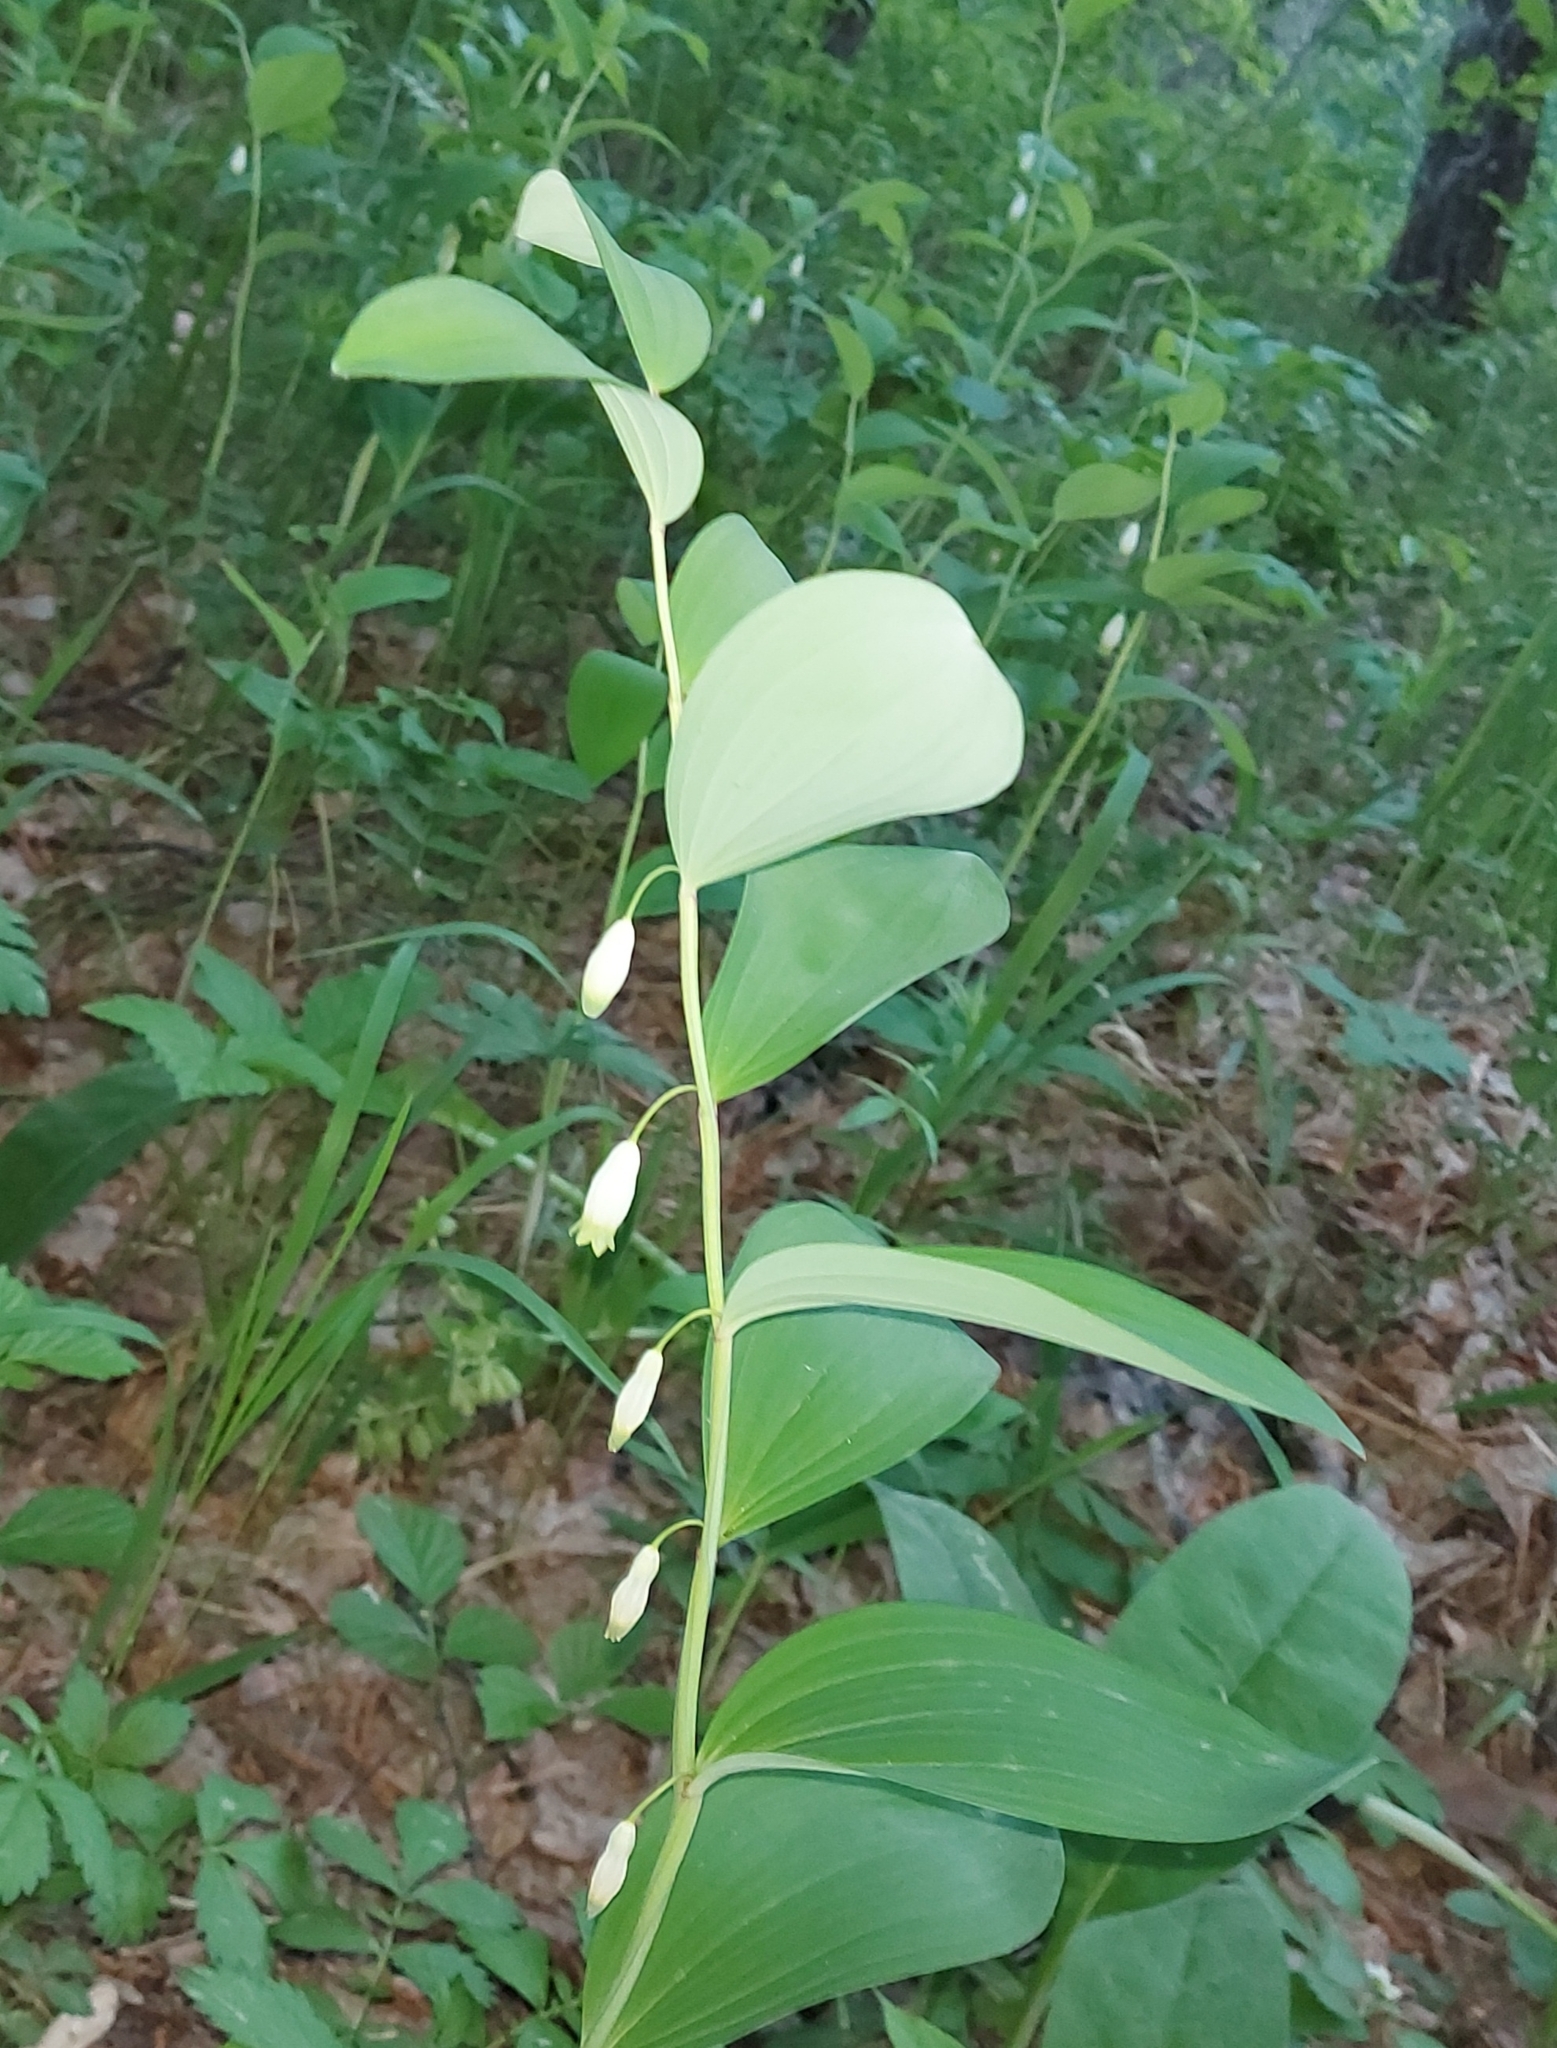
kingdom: Plantae
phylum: Tracheophyta
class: Liliopsida
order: Asparagales
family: Asparagaceae
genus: Polygonatum
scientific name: Polygonatum odoratum
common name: Angular solomon's-seal
